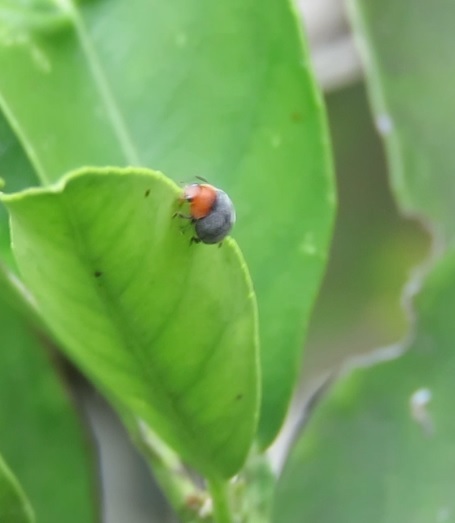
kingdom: Animalia
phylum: Arthropoda
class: Insecta
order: Coleoptera
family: Coccinellidae
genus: Cryptolaemus
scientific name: Cryptolaemus montrouzieri
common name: Mealybug destroyer
